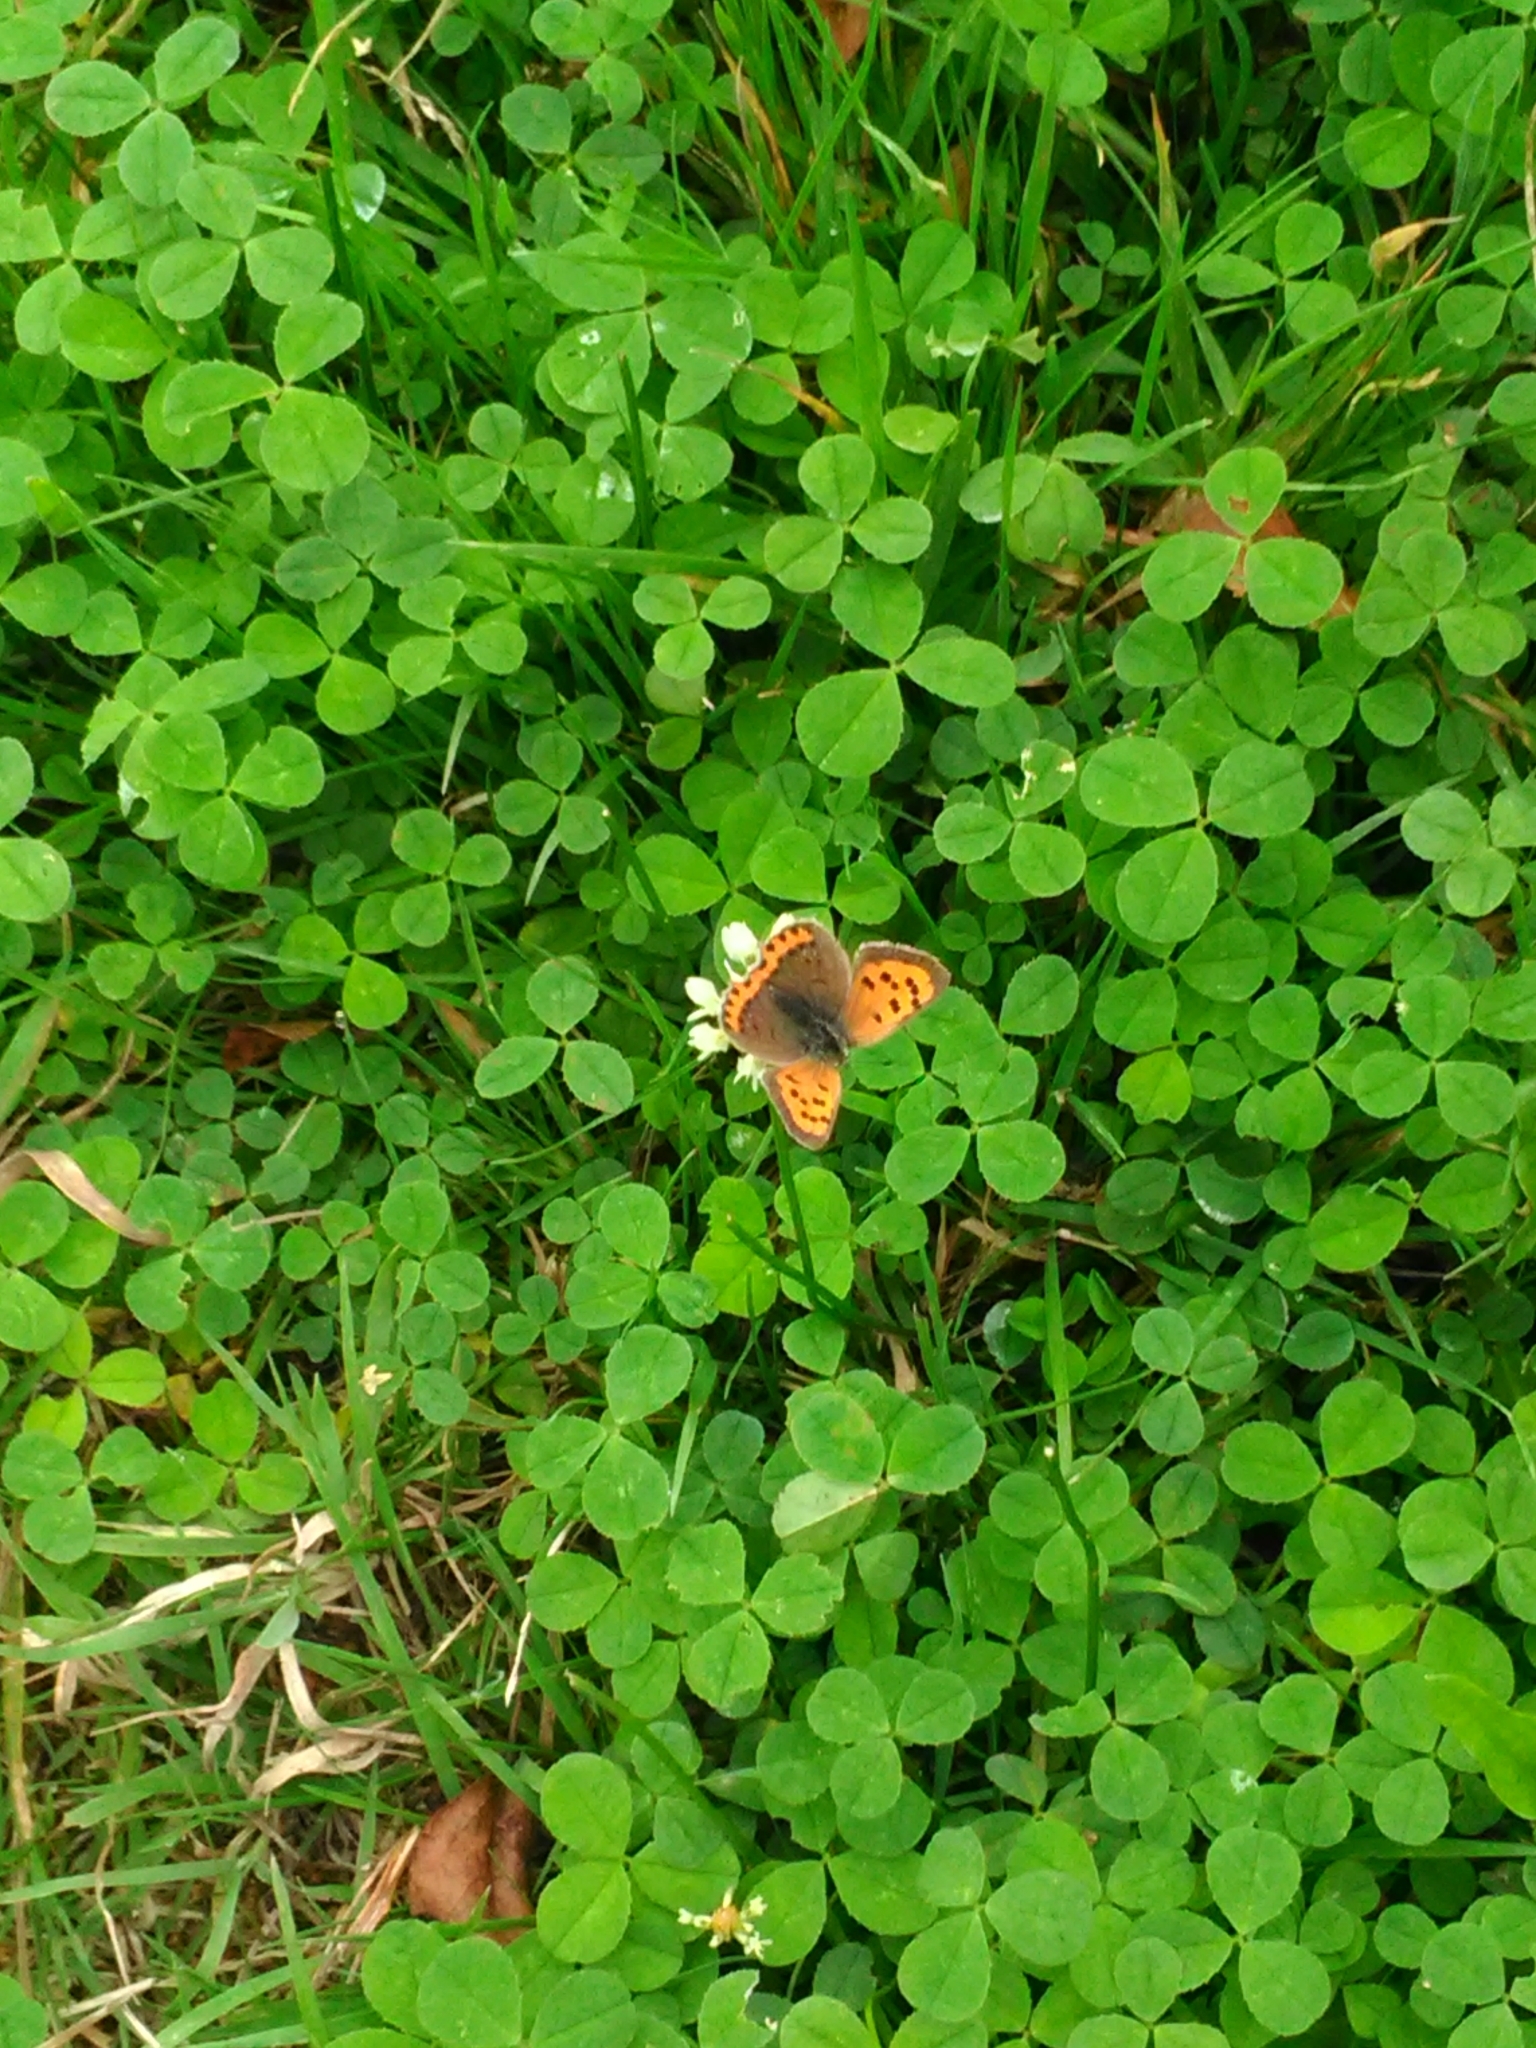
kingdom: Animalia
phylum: Arthropoda
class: Insecta
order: Lepidoptera
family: Lycaenidae
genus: Lycaena
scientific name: Lycaena phlaeas
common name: Small copper
